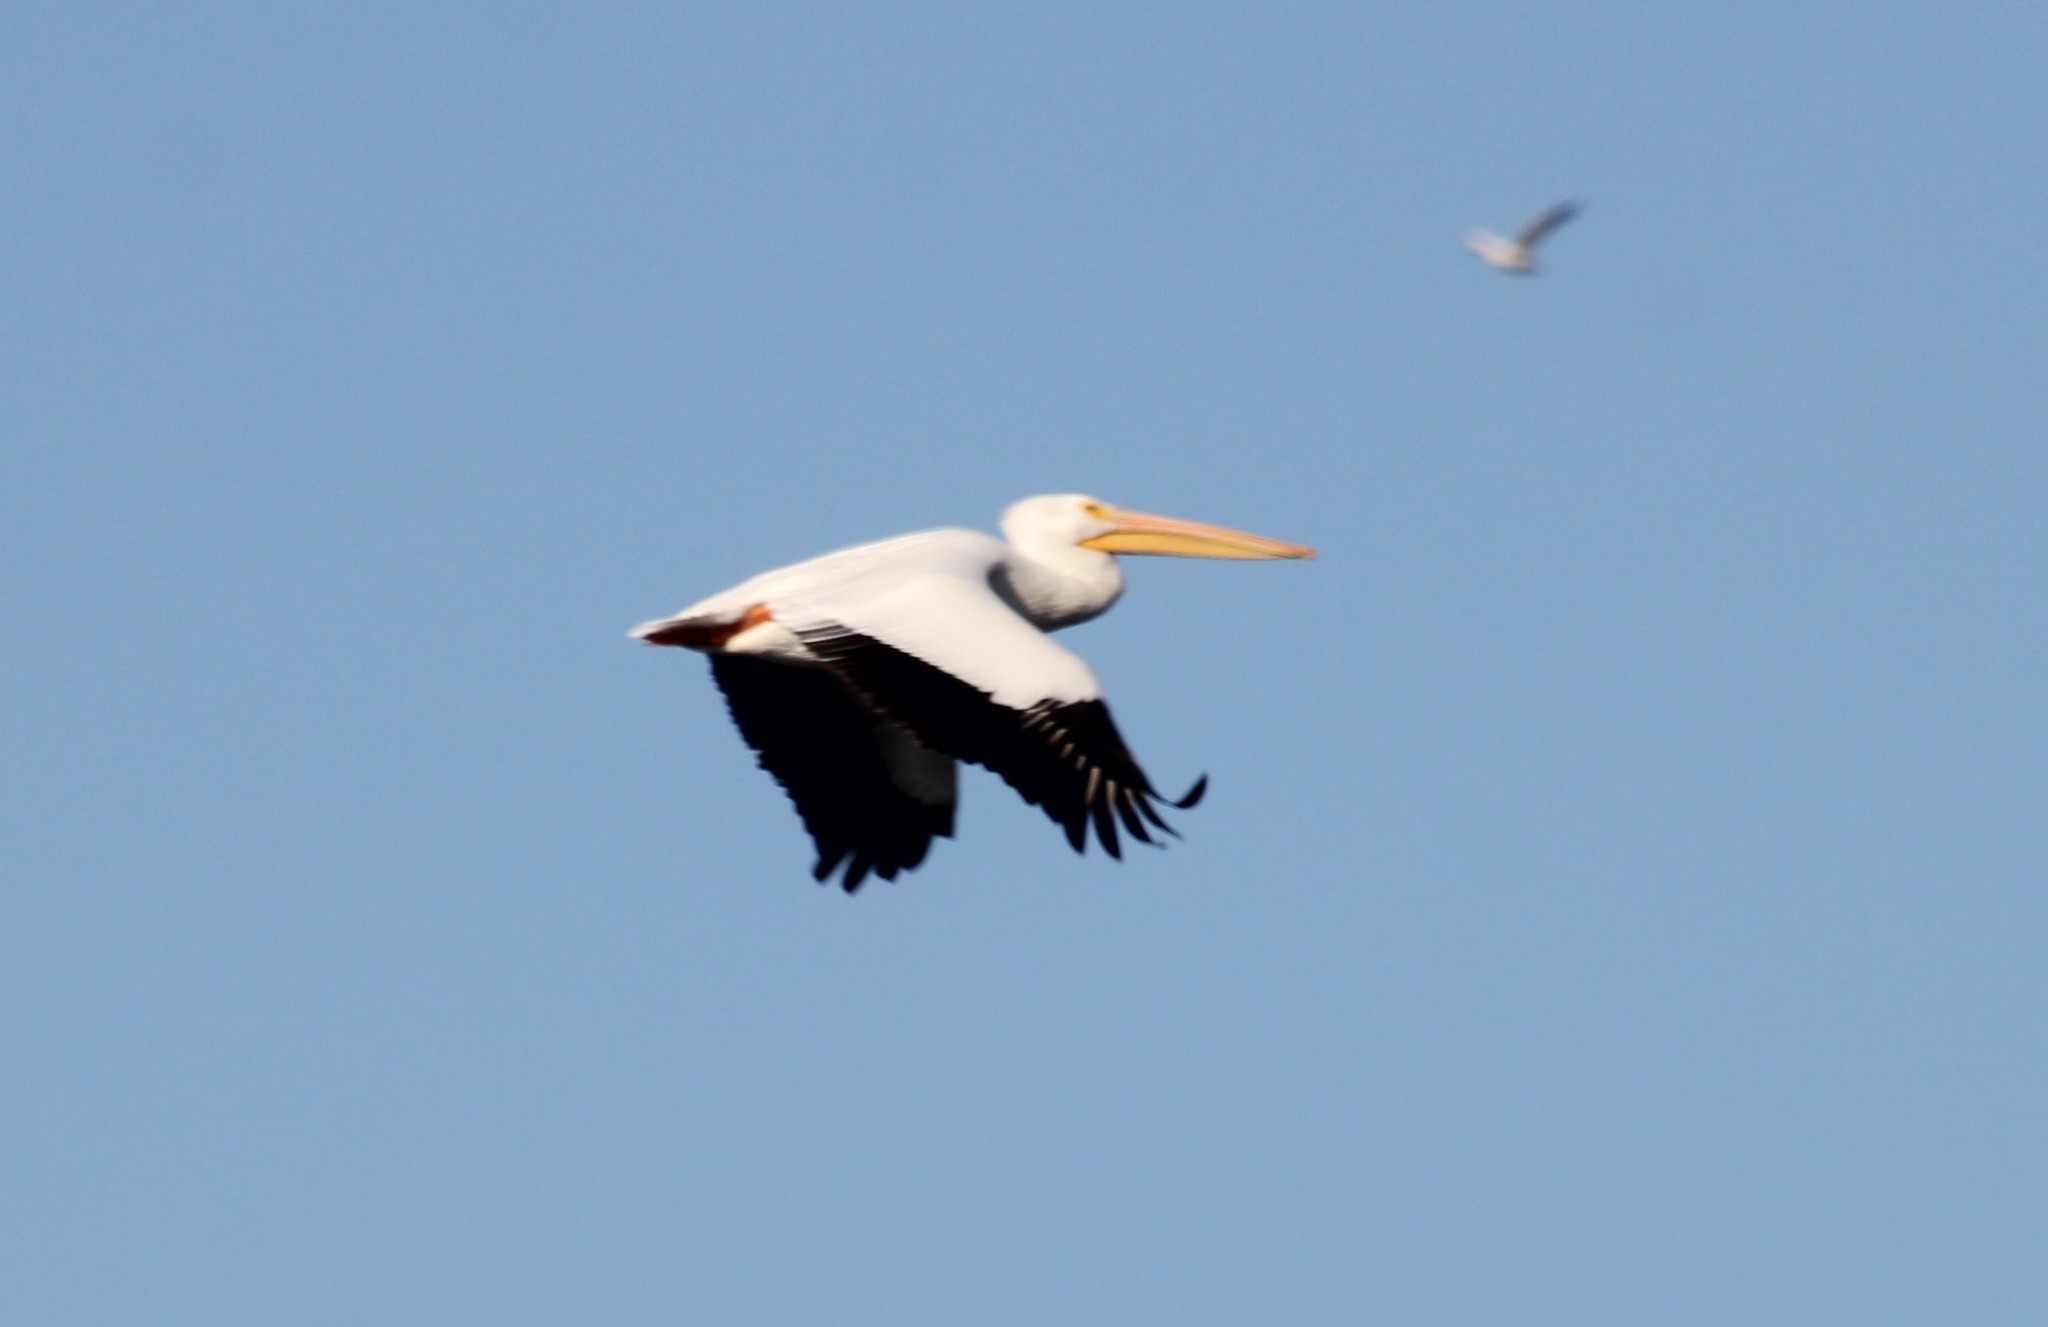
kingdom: Animalia
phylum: Chordata
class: Aves
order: Pelecaniformes
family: Pelecanidae
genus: Pelecanus
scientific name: Pelecanus erythrorhynchos
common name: American white pelican
